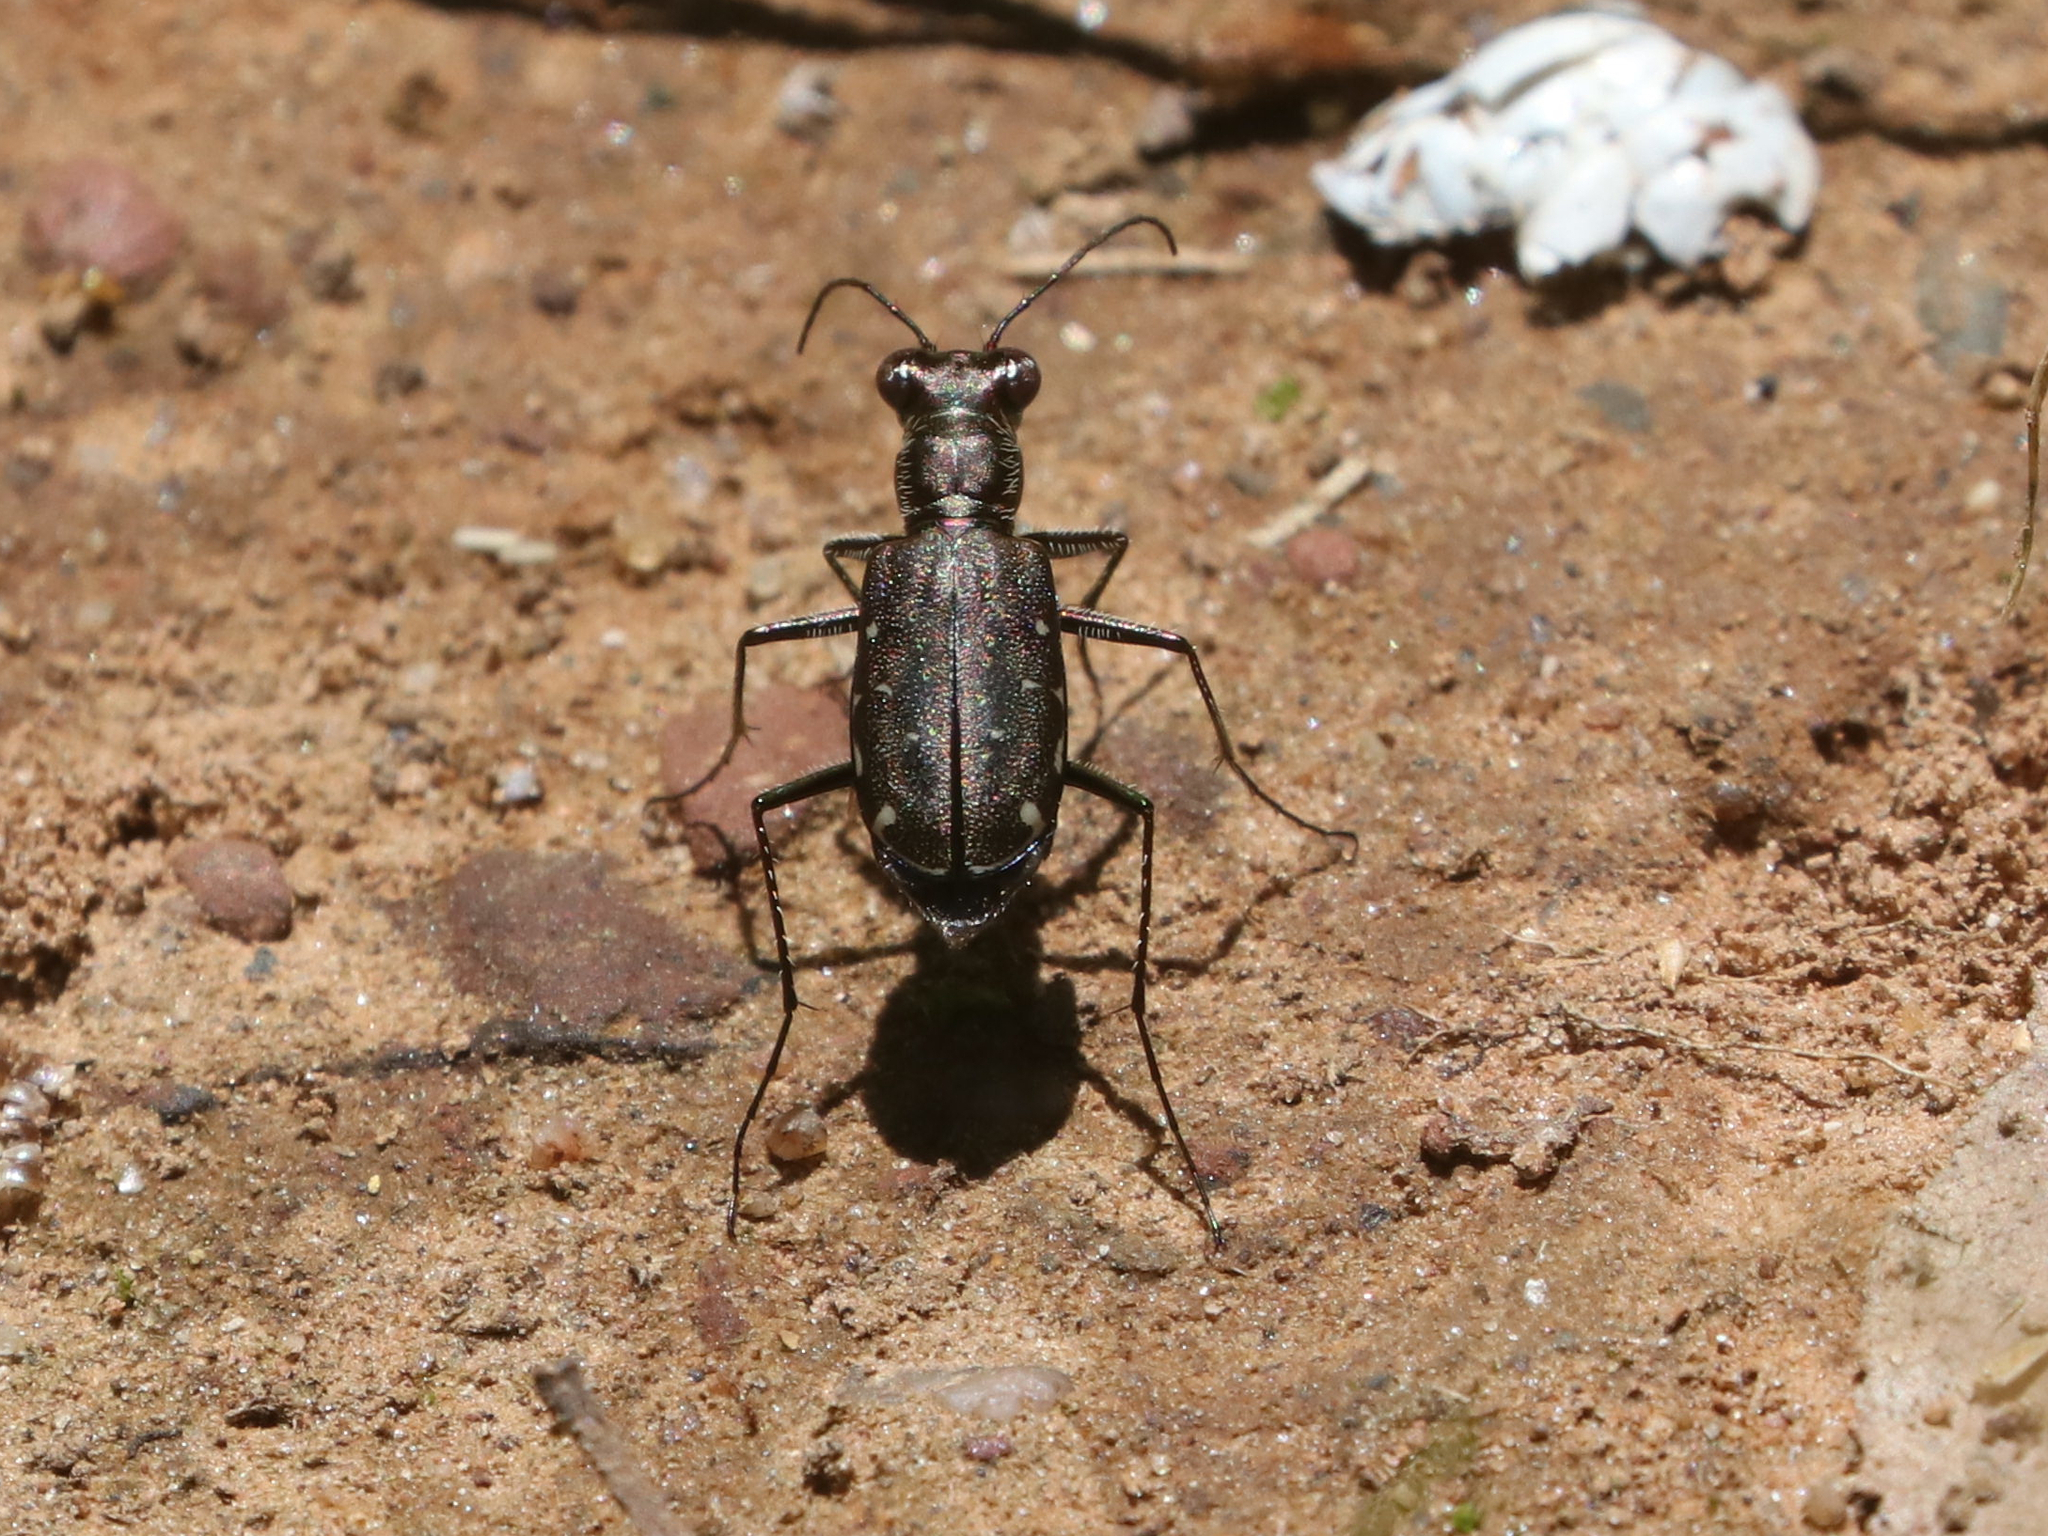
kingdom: Animalia
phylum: Arthropoda
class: Insecta
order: Coleoptera
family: Carabidae
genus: Cicindela
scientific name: Cicindela punctulata
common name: Punctured tiger beetle
